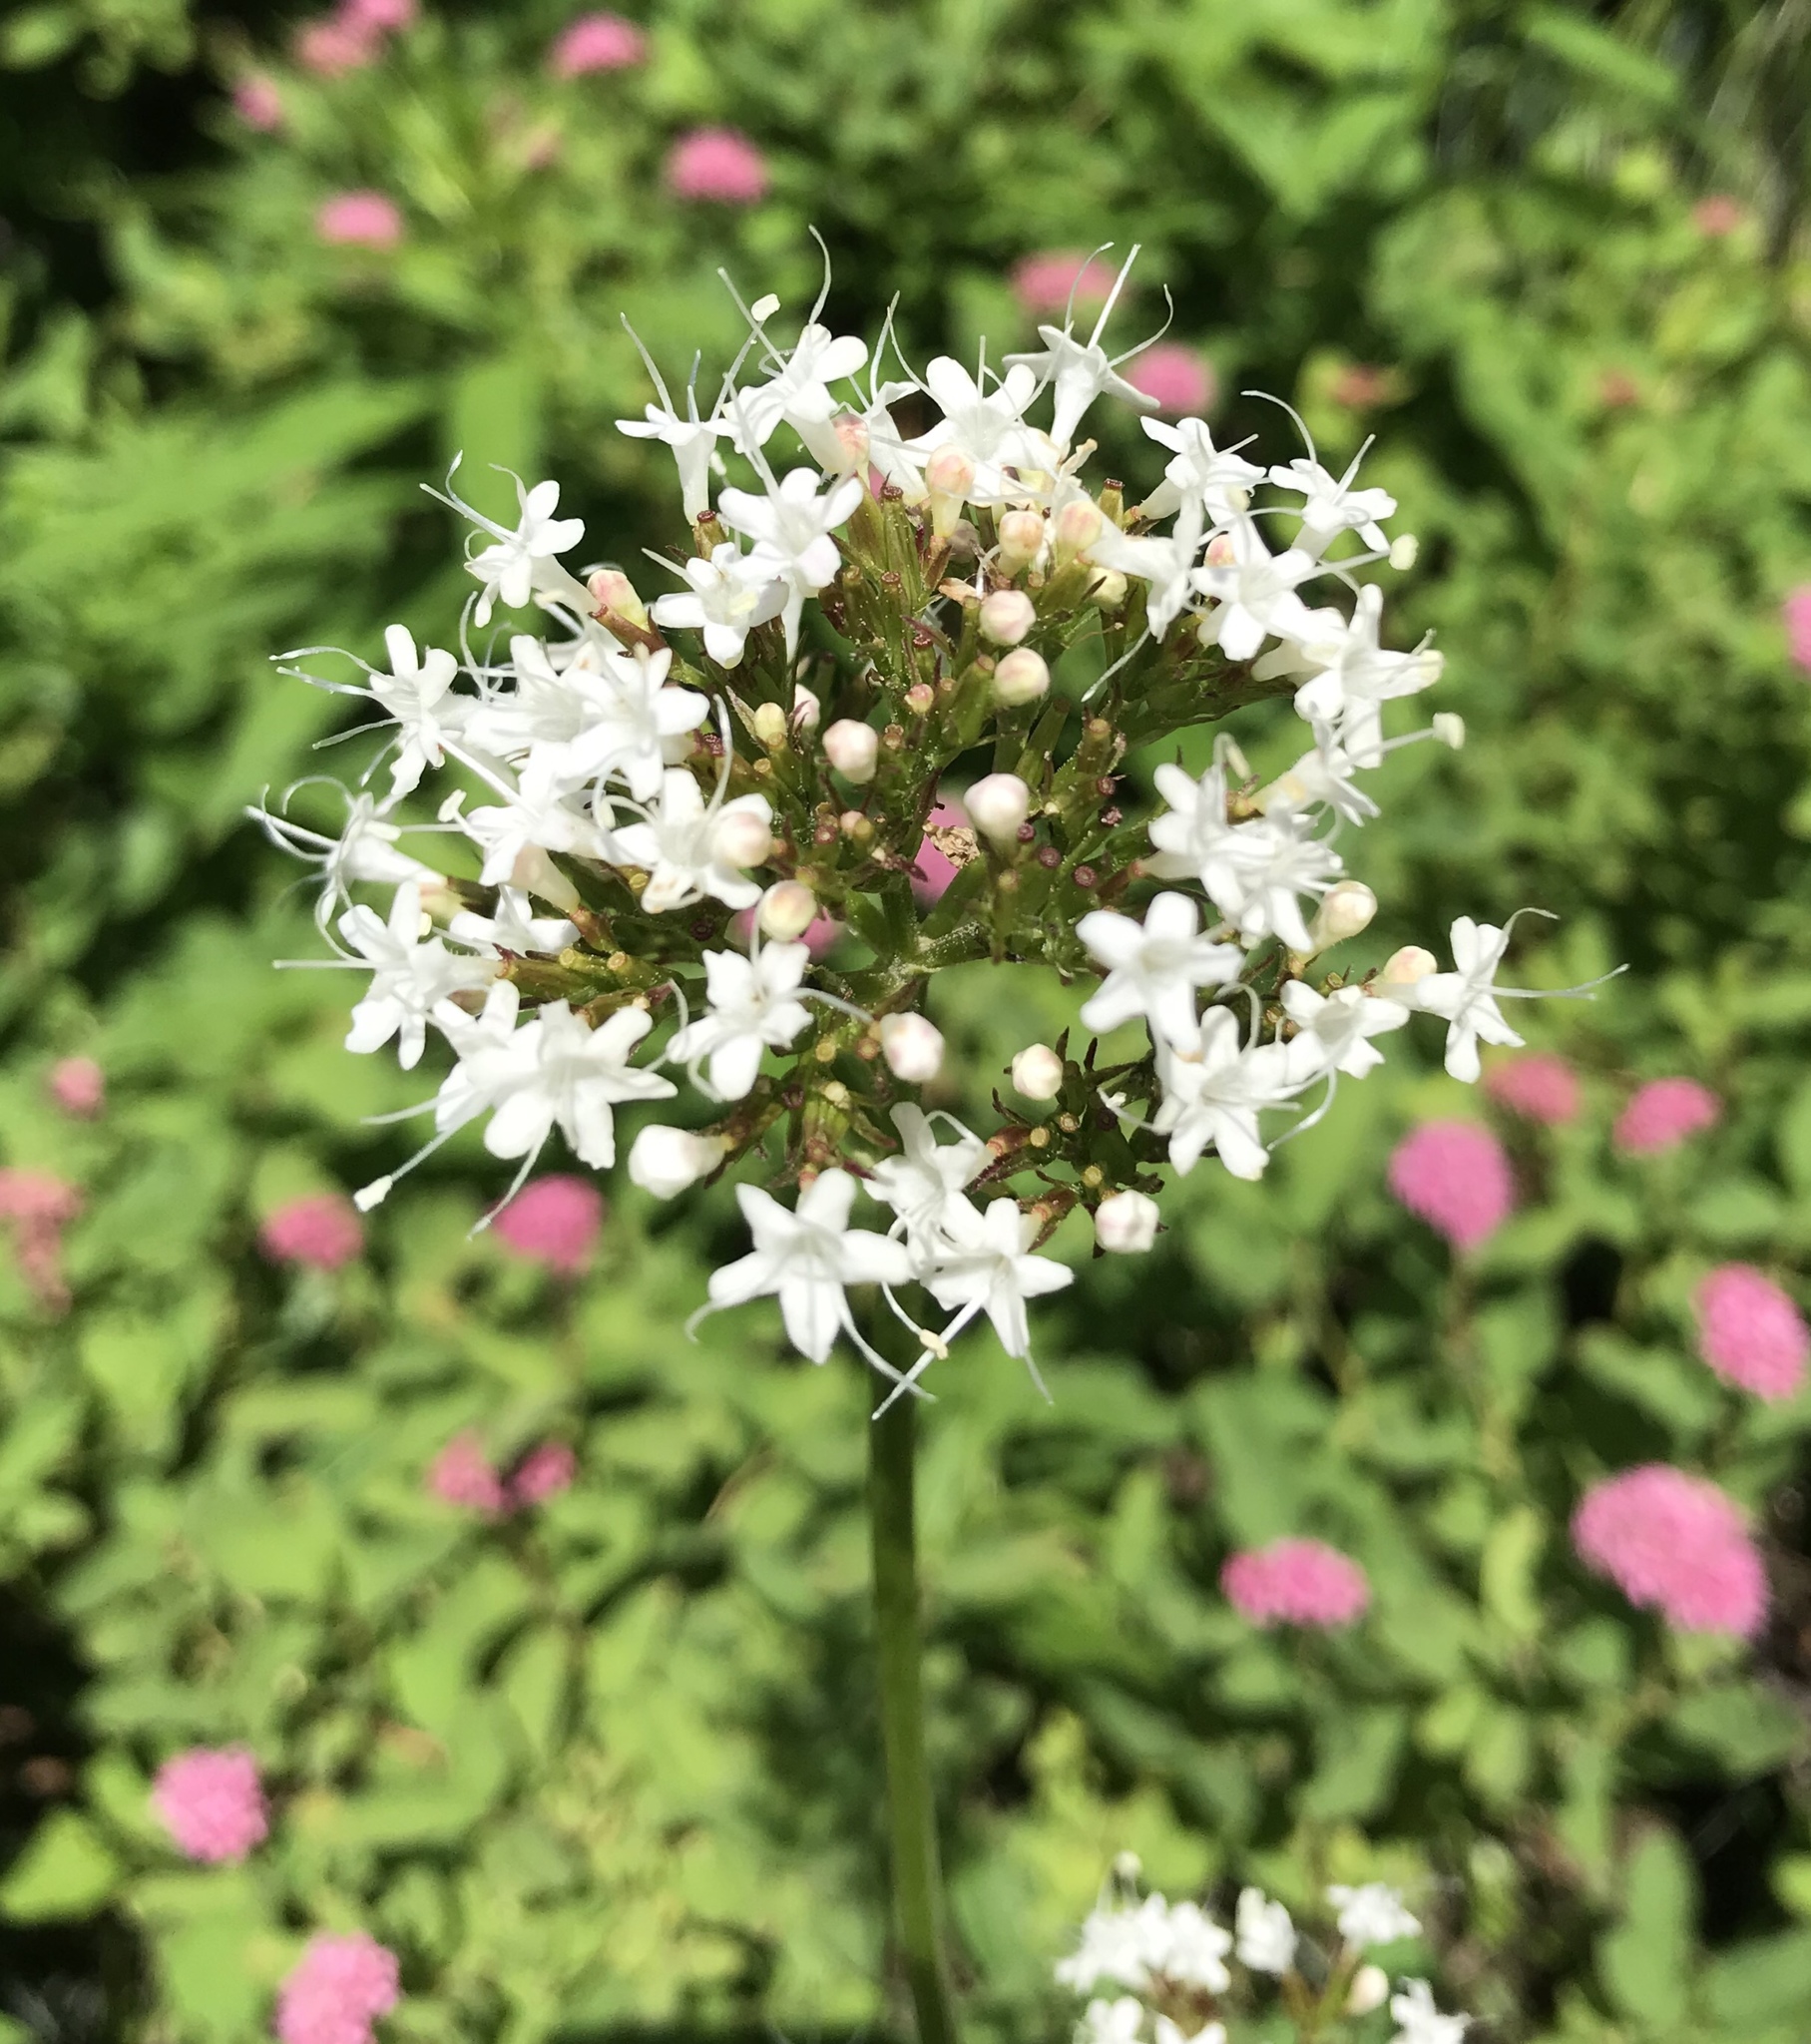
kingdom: Plantae
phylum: Tracheophyta
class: Magnoliopsida
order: Dipsacales
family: Caprifoliaceae
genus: Valeriana
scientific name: Valeriana sitchensis
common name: Pacific valerian
